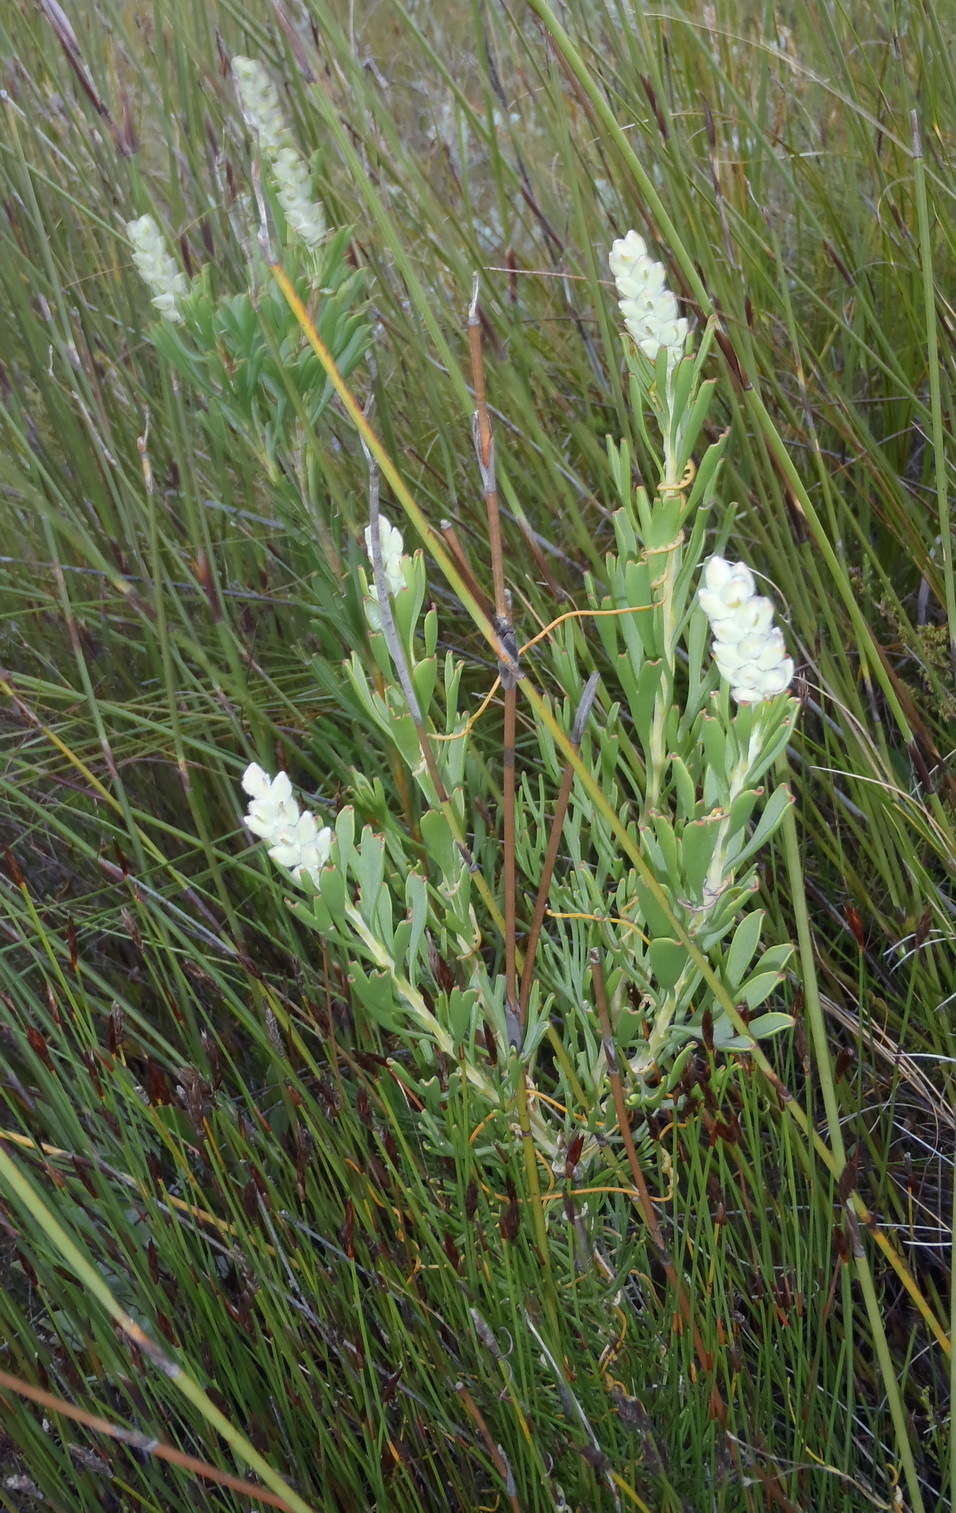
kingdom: Plantae
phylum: Tracheophyta
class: Magnoliopsida
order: Proteales
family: Proteaceae
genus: Paranomus
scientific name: Paranomus dregei
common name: Scented sceptre
